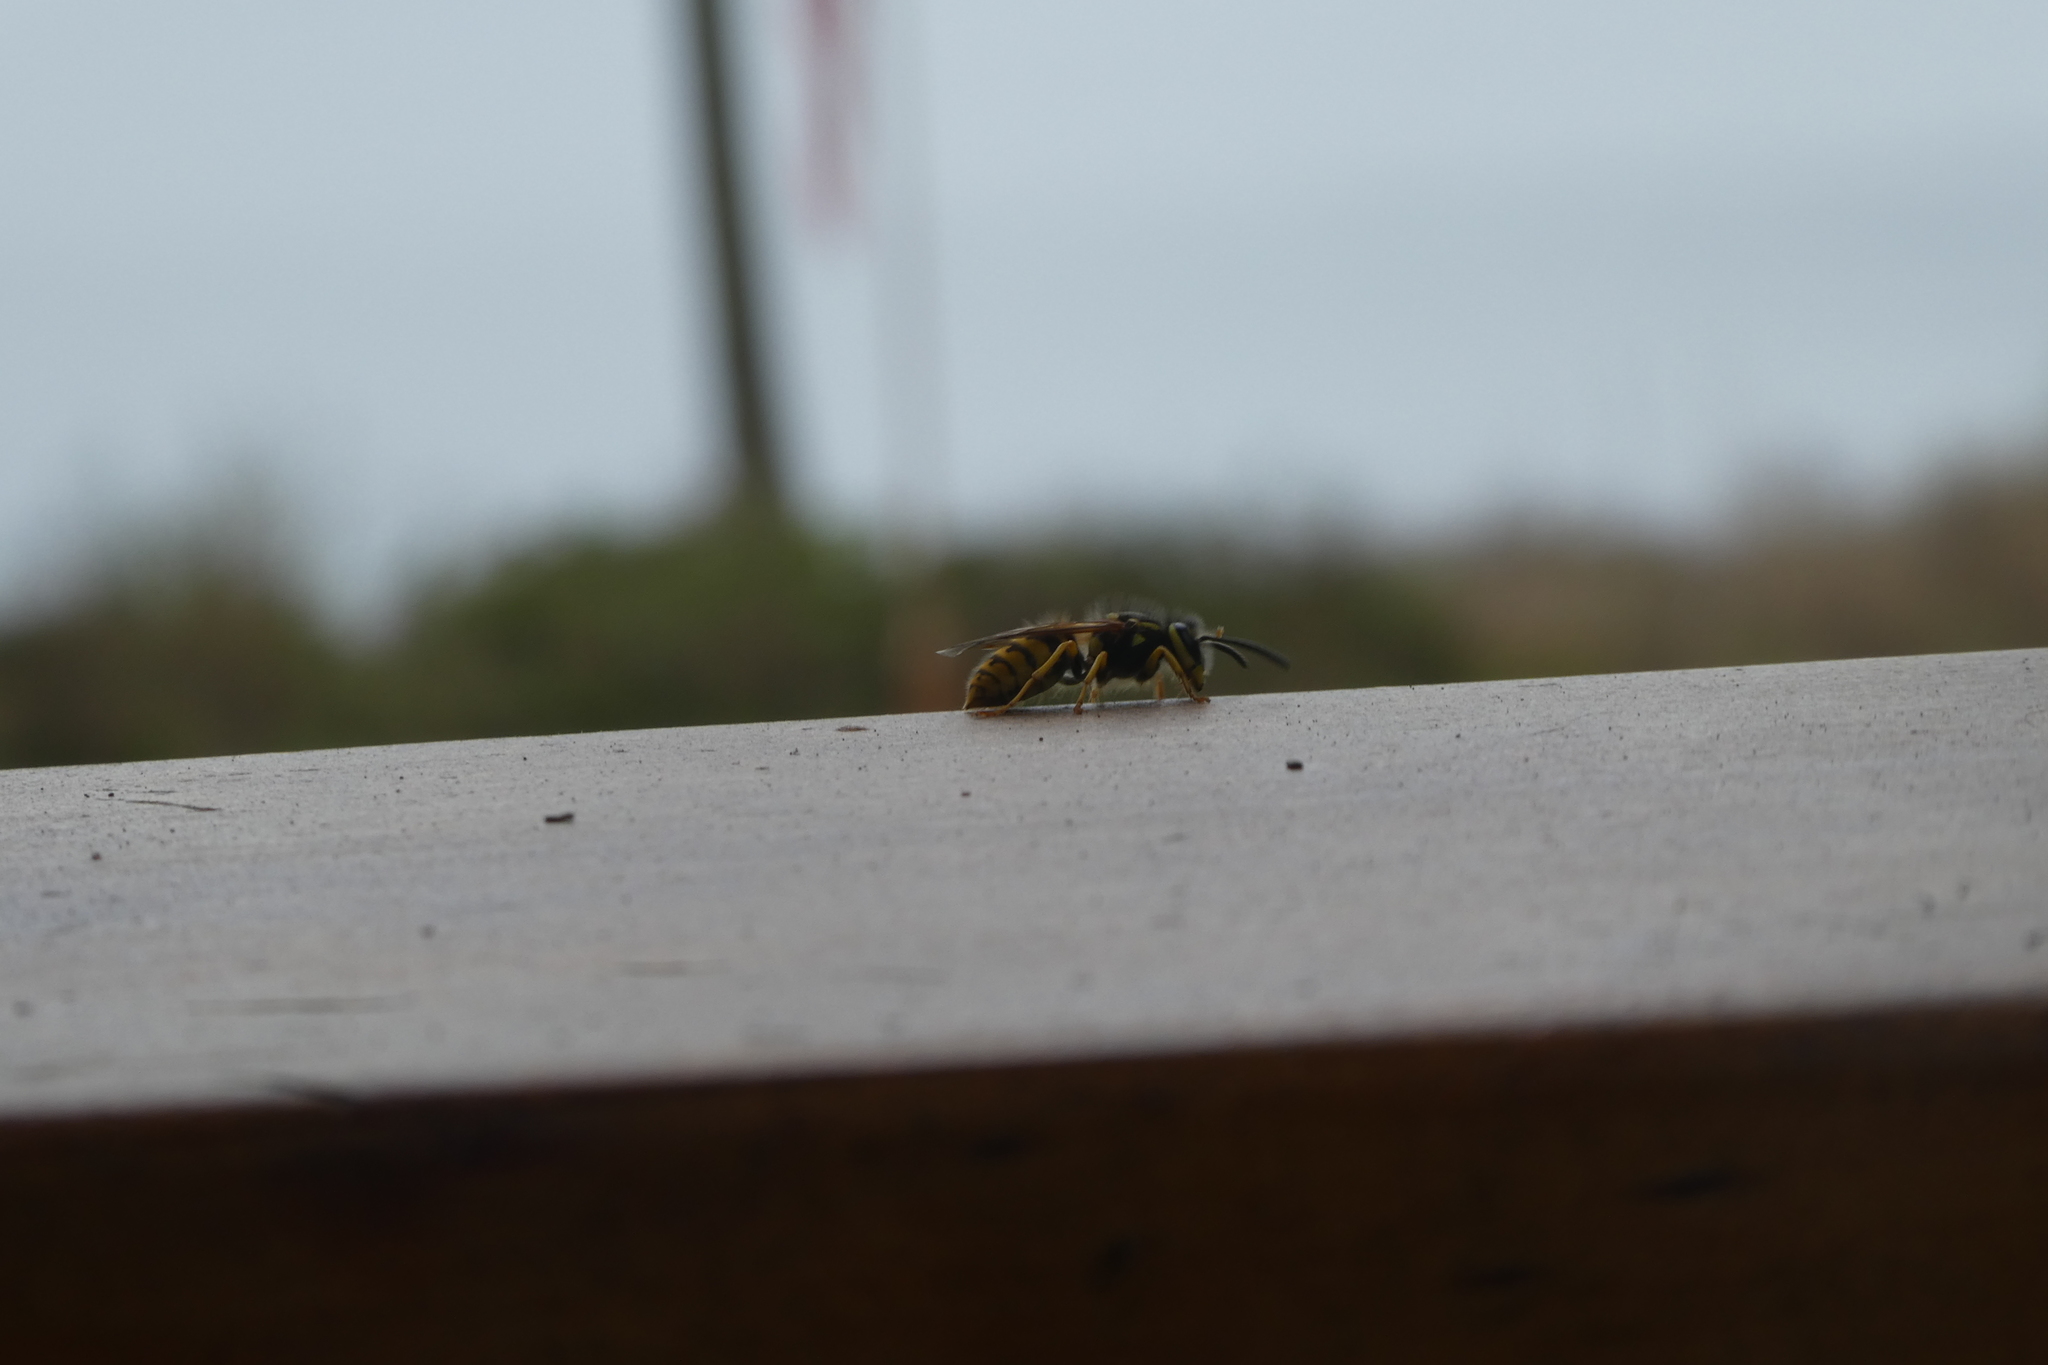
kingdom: Animalia
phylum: Arthropoda
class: Insecta
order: Hymenoptera
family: Vespidae
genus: Vespula
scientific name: Vespula
